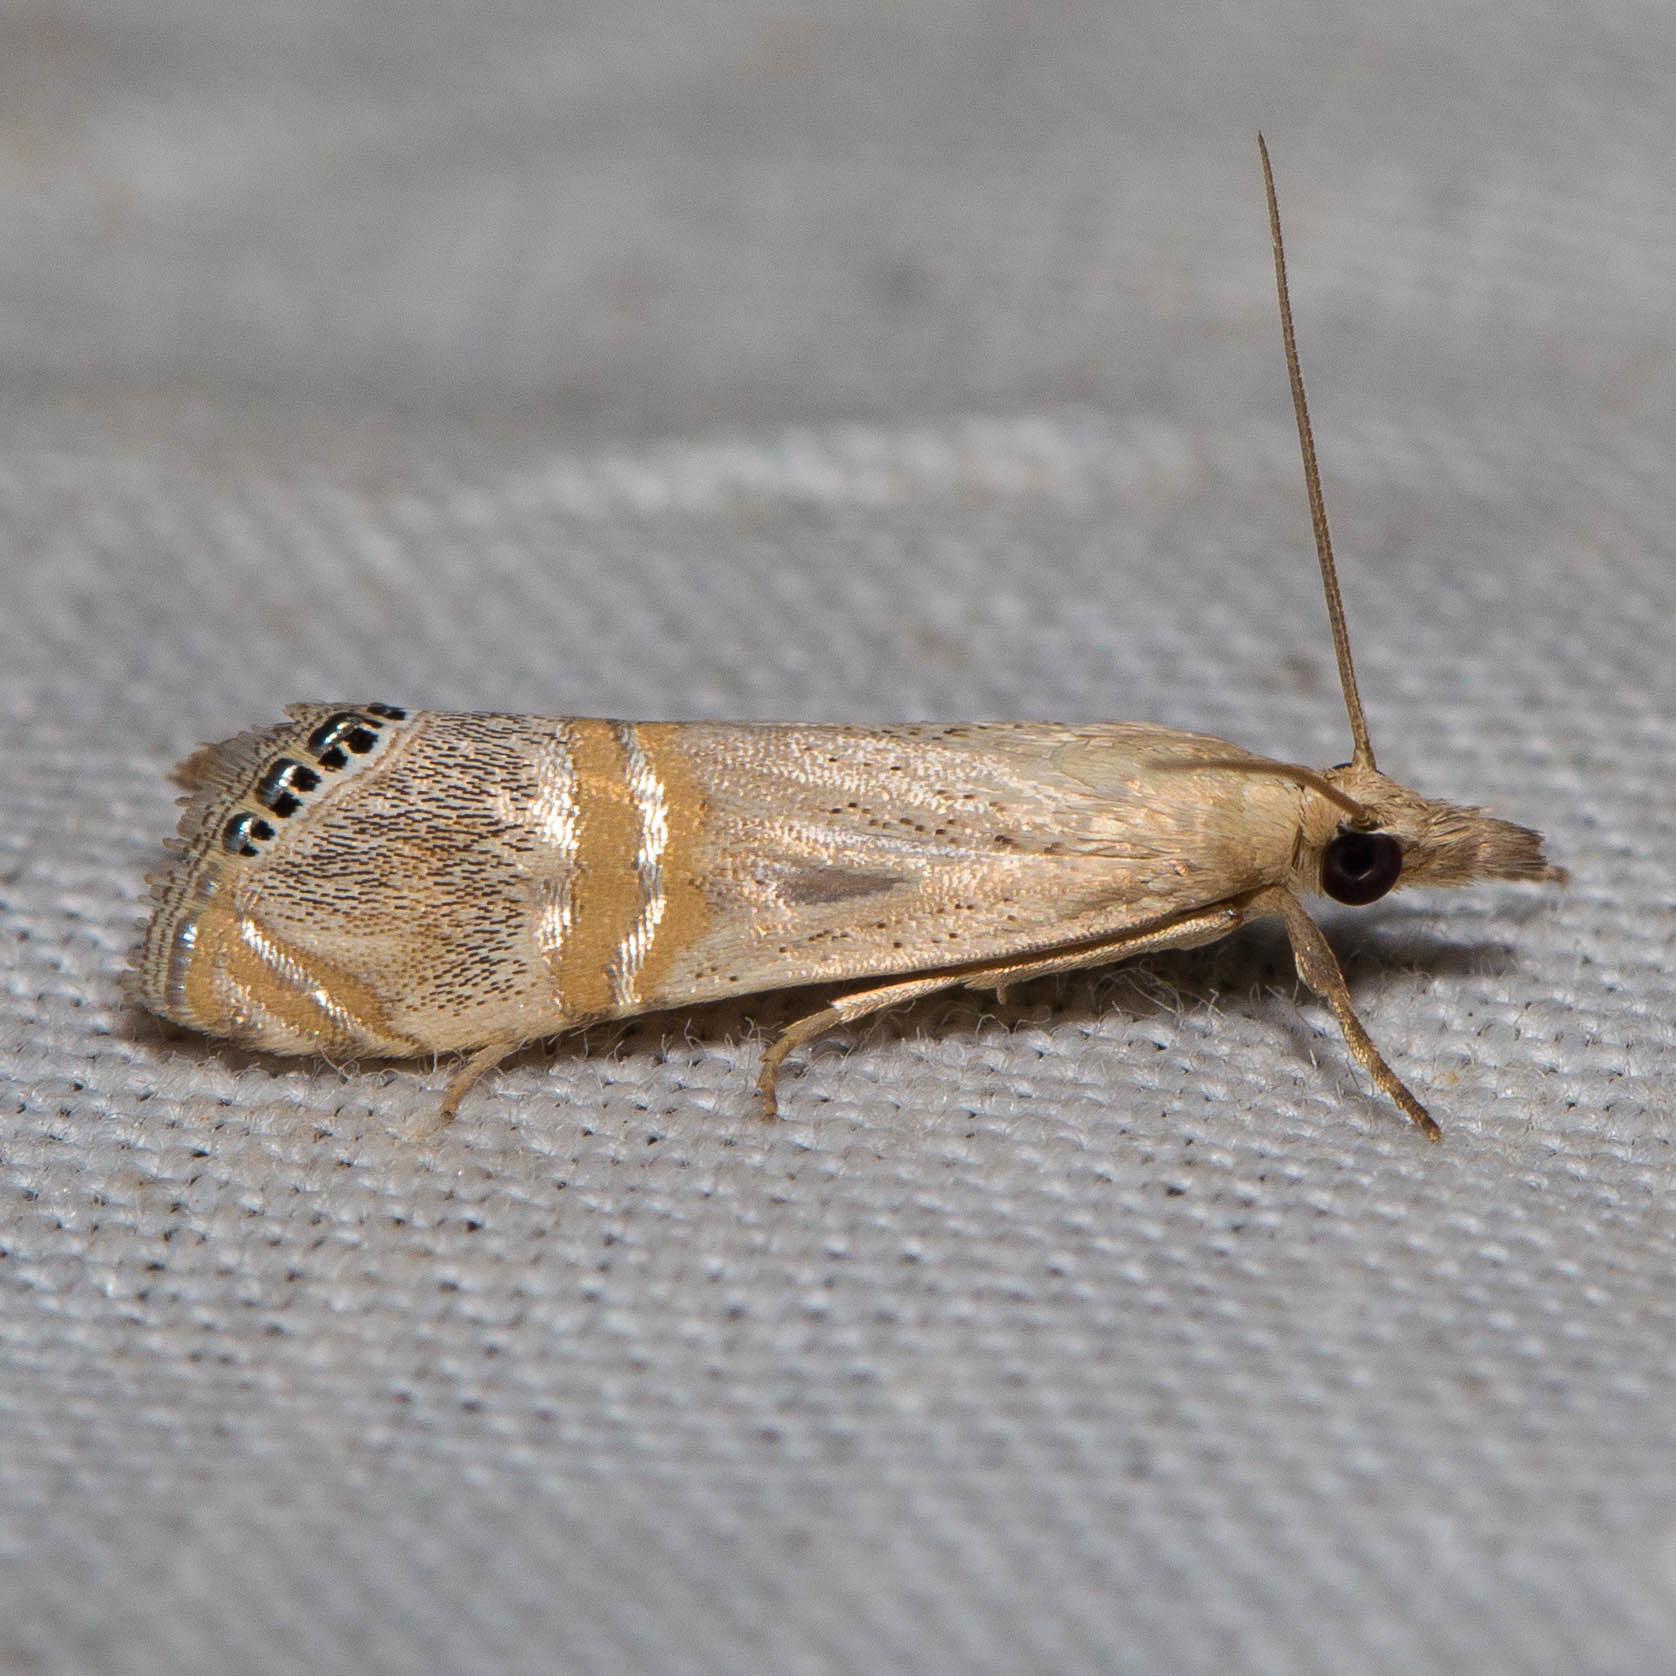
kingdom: Animalia
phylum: Arthropoda
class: Insecta
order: Lepidoptera
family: Crambidae
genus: Euchromius
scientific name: Euchromius ocellea
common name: Necklace veneer moth
